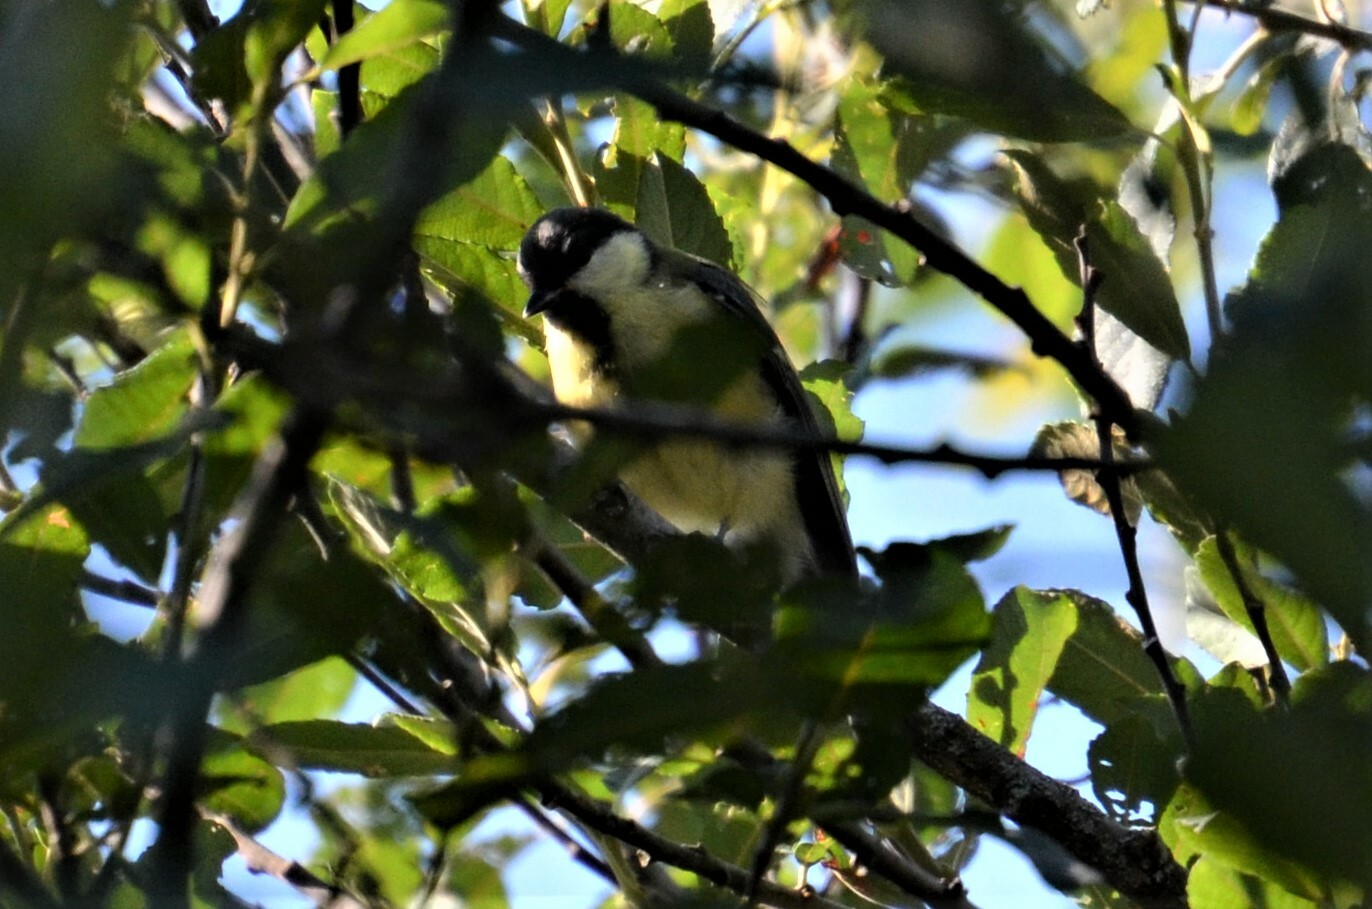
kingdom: Animalia
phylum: Chordata
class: Aves
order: Passeriformes
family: Paridae
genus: Parus
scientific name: Parus major
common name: Great tit
